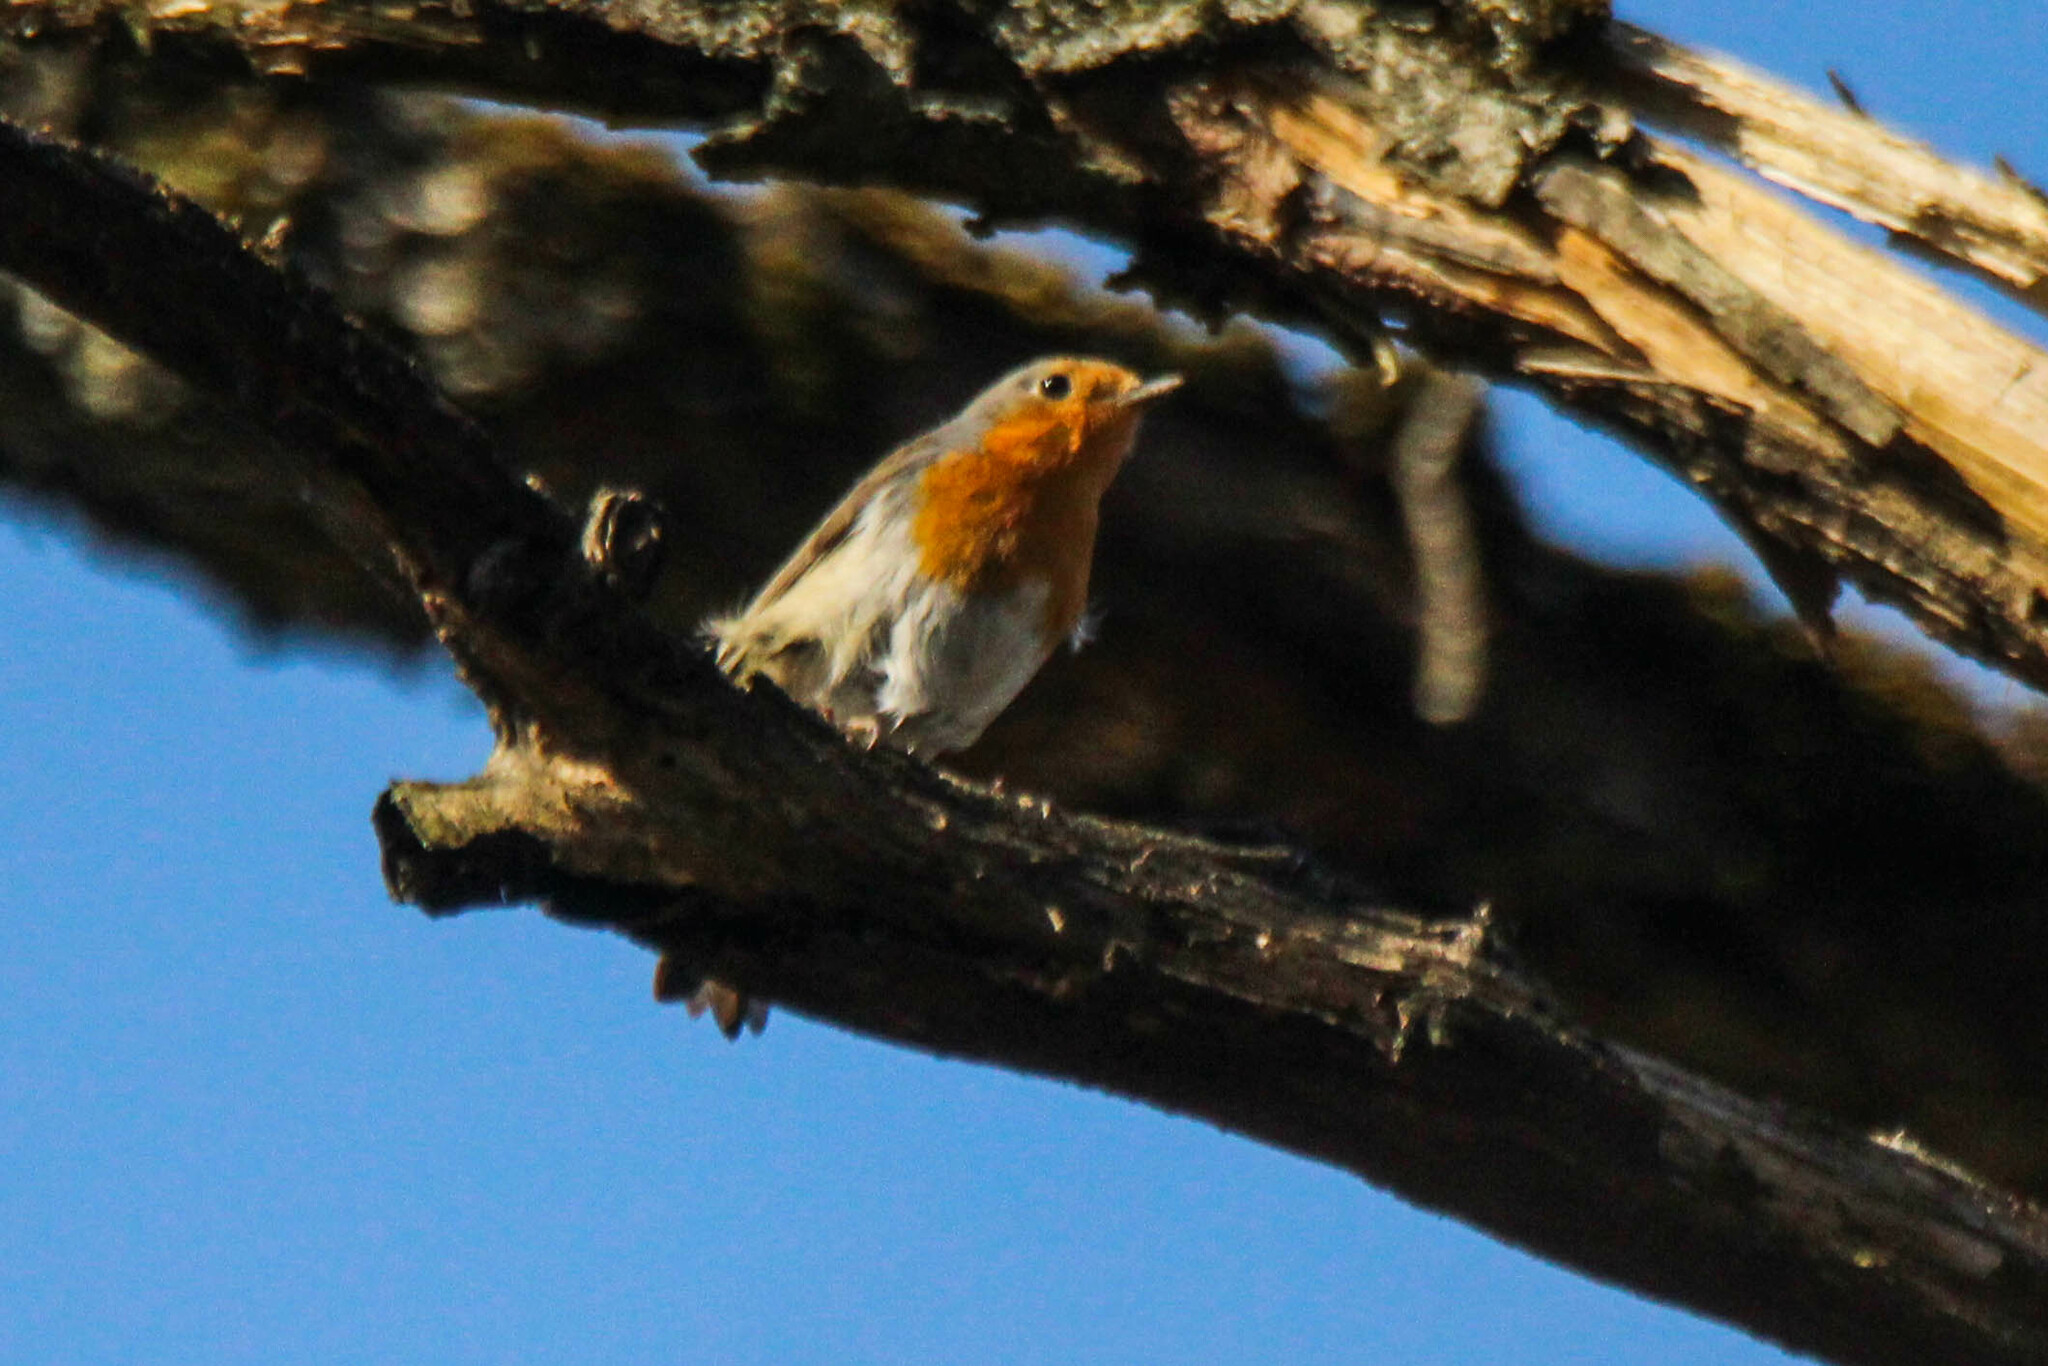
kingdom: Animalia
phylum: Chordata
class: Aves
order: Passeriformes
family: Muscicapidae
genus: Erithacus
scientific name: Erithacus rubecula
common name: European robin
